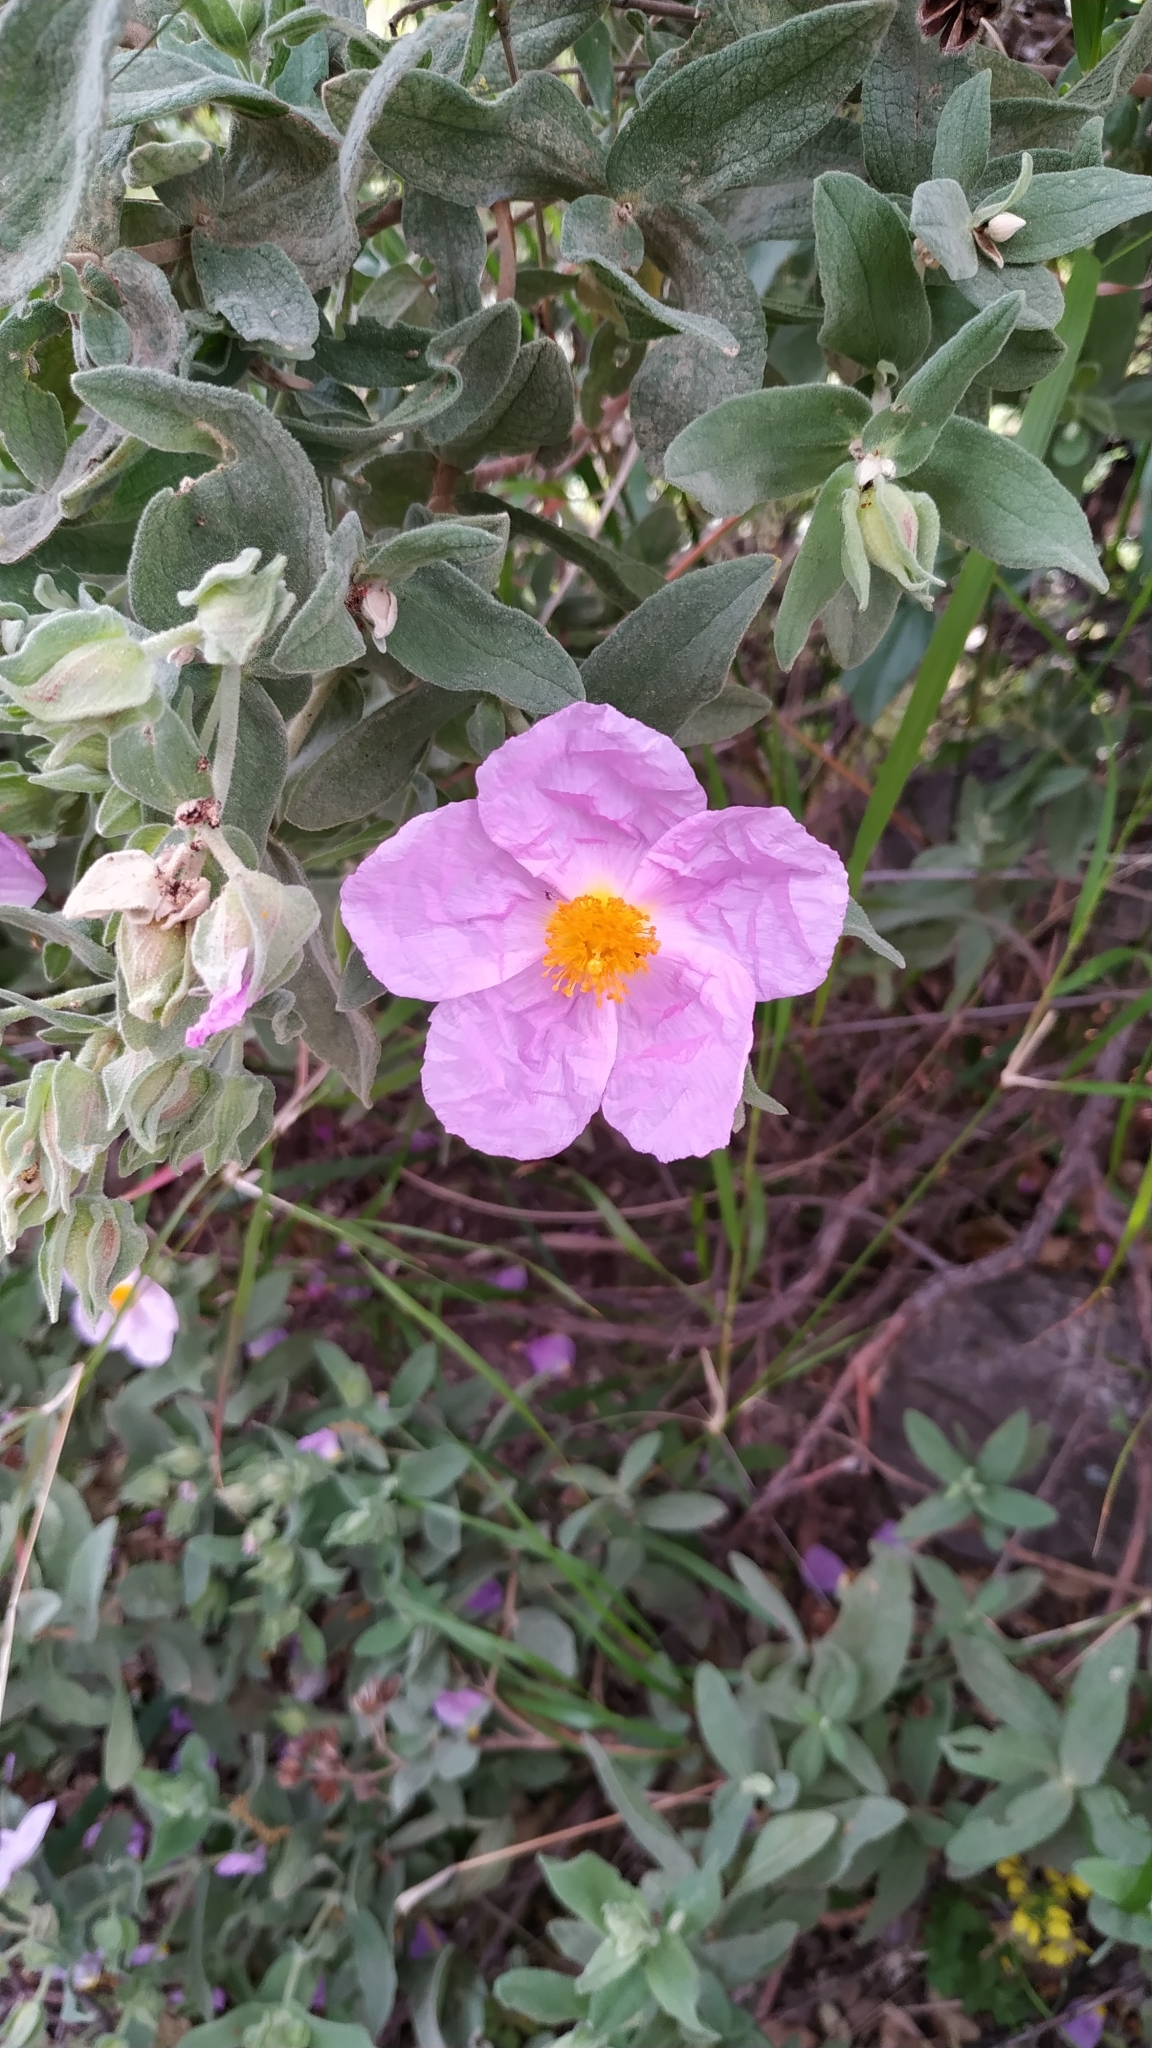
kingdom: Plantae
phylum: Tracheophyta
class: Magnoliopsida
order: Malvales
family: Cistaceae
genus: Cistus
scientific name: Cistus albidus
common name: White-leaf rock-rose
